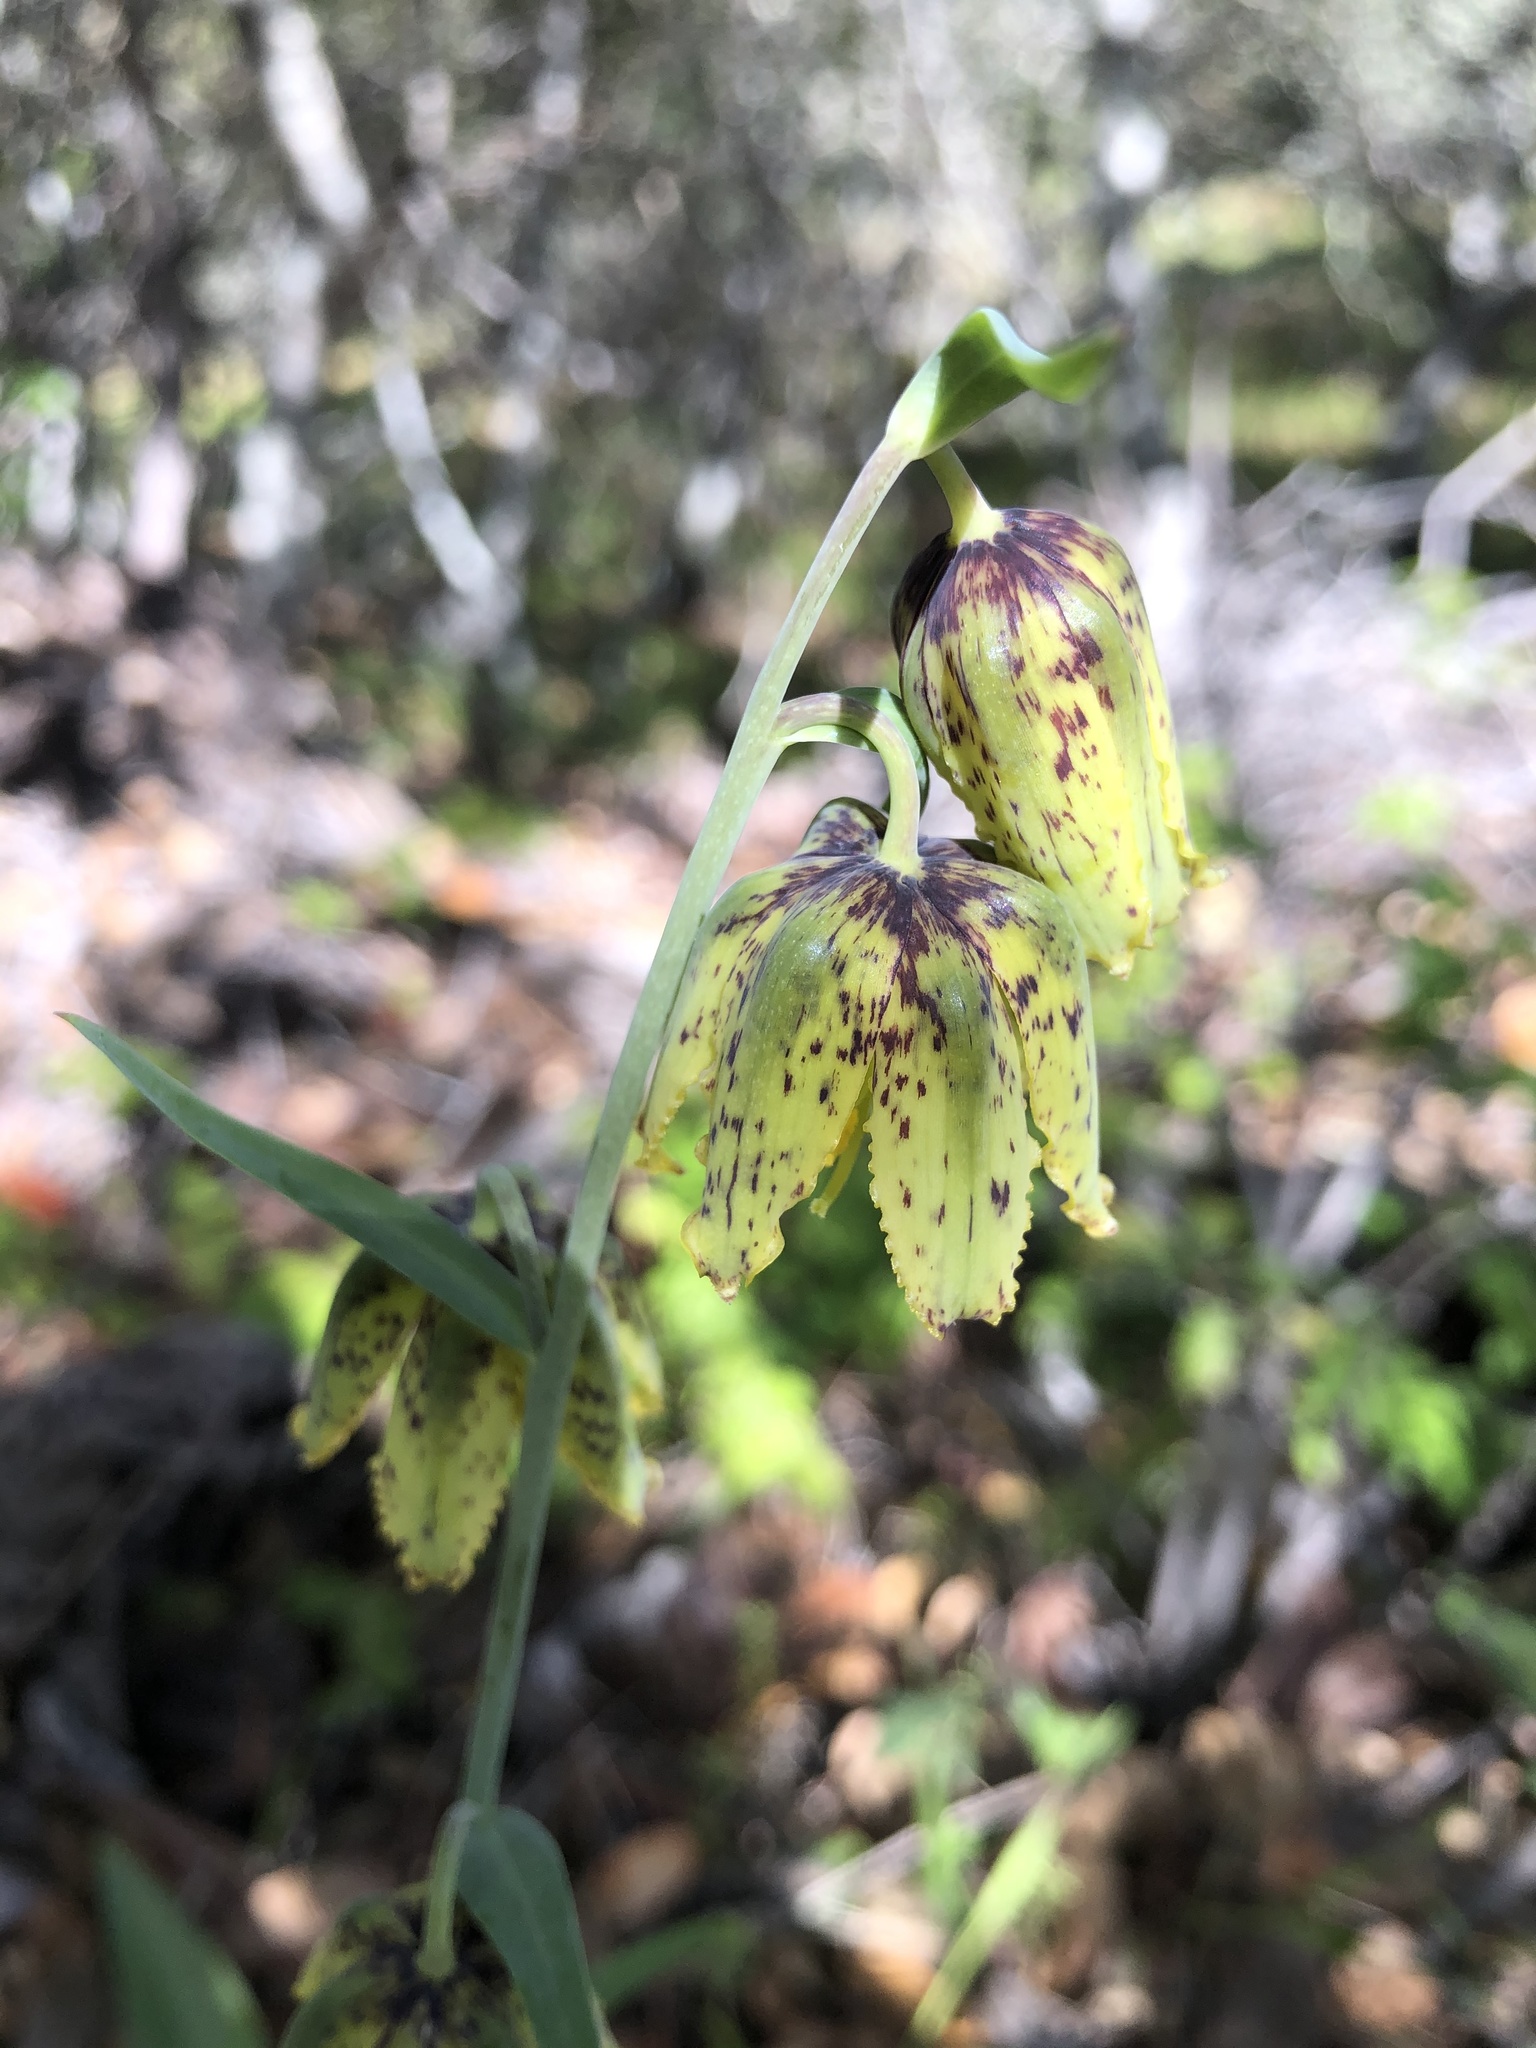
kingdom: Plantae
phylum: Tracheophyta
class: Liliopsida
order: Liliales
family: Liliaceae
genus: Fritillaria
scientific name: Fritillaria affinis
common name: Ojai fritillary
